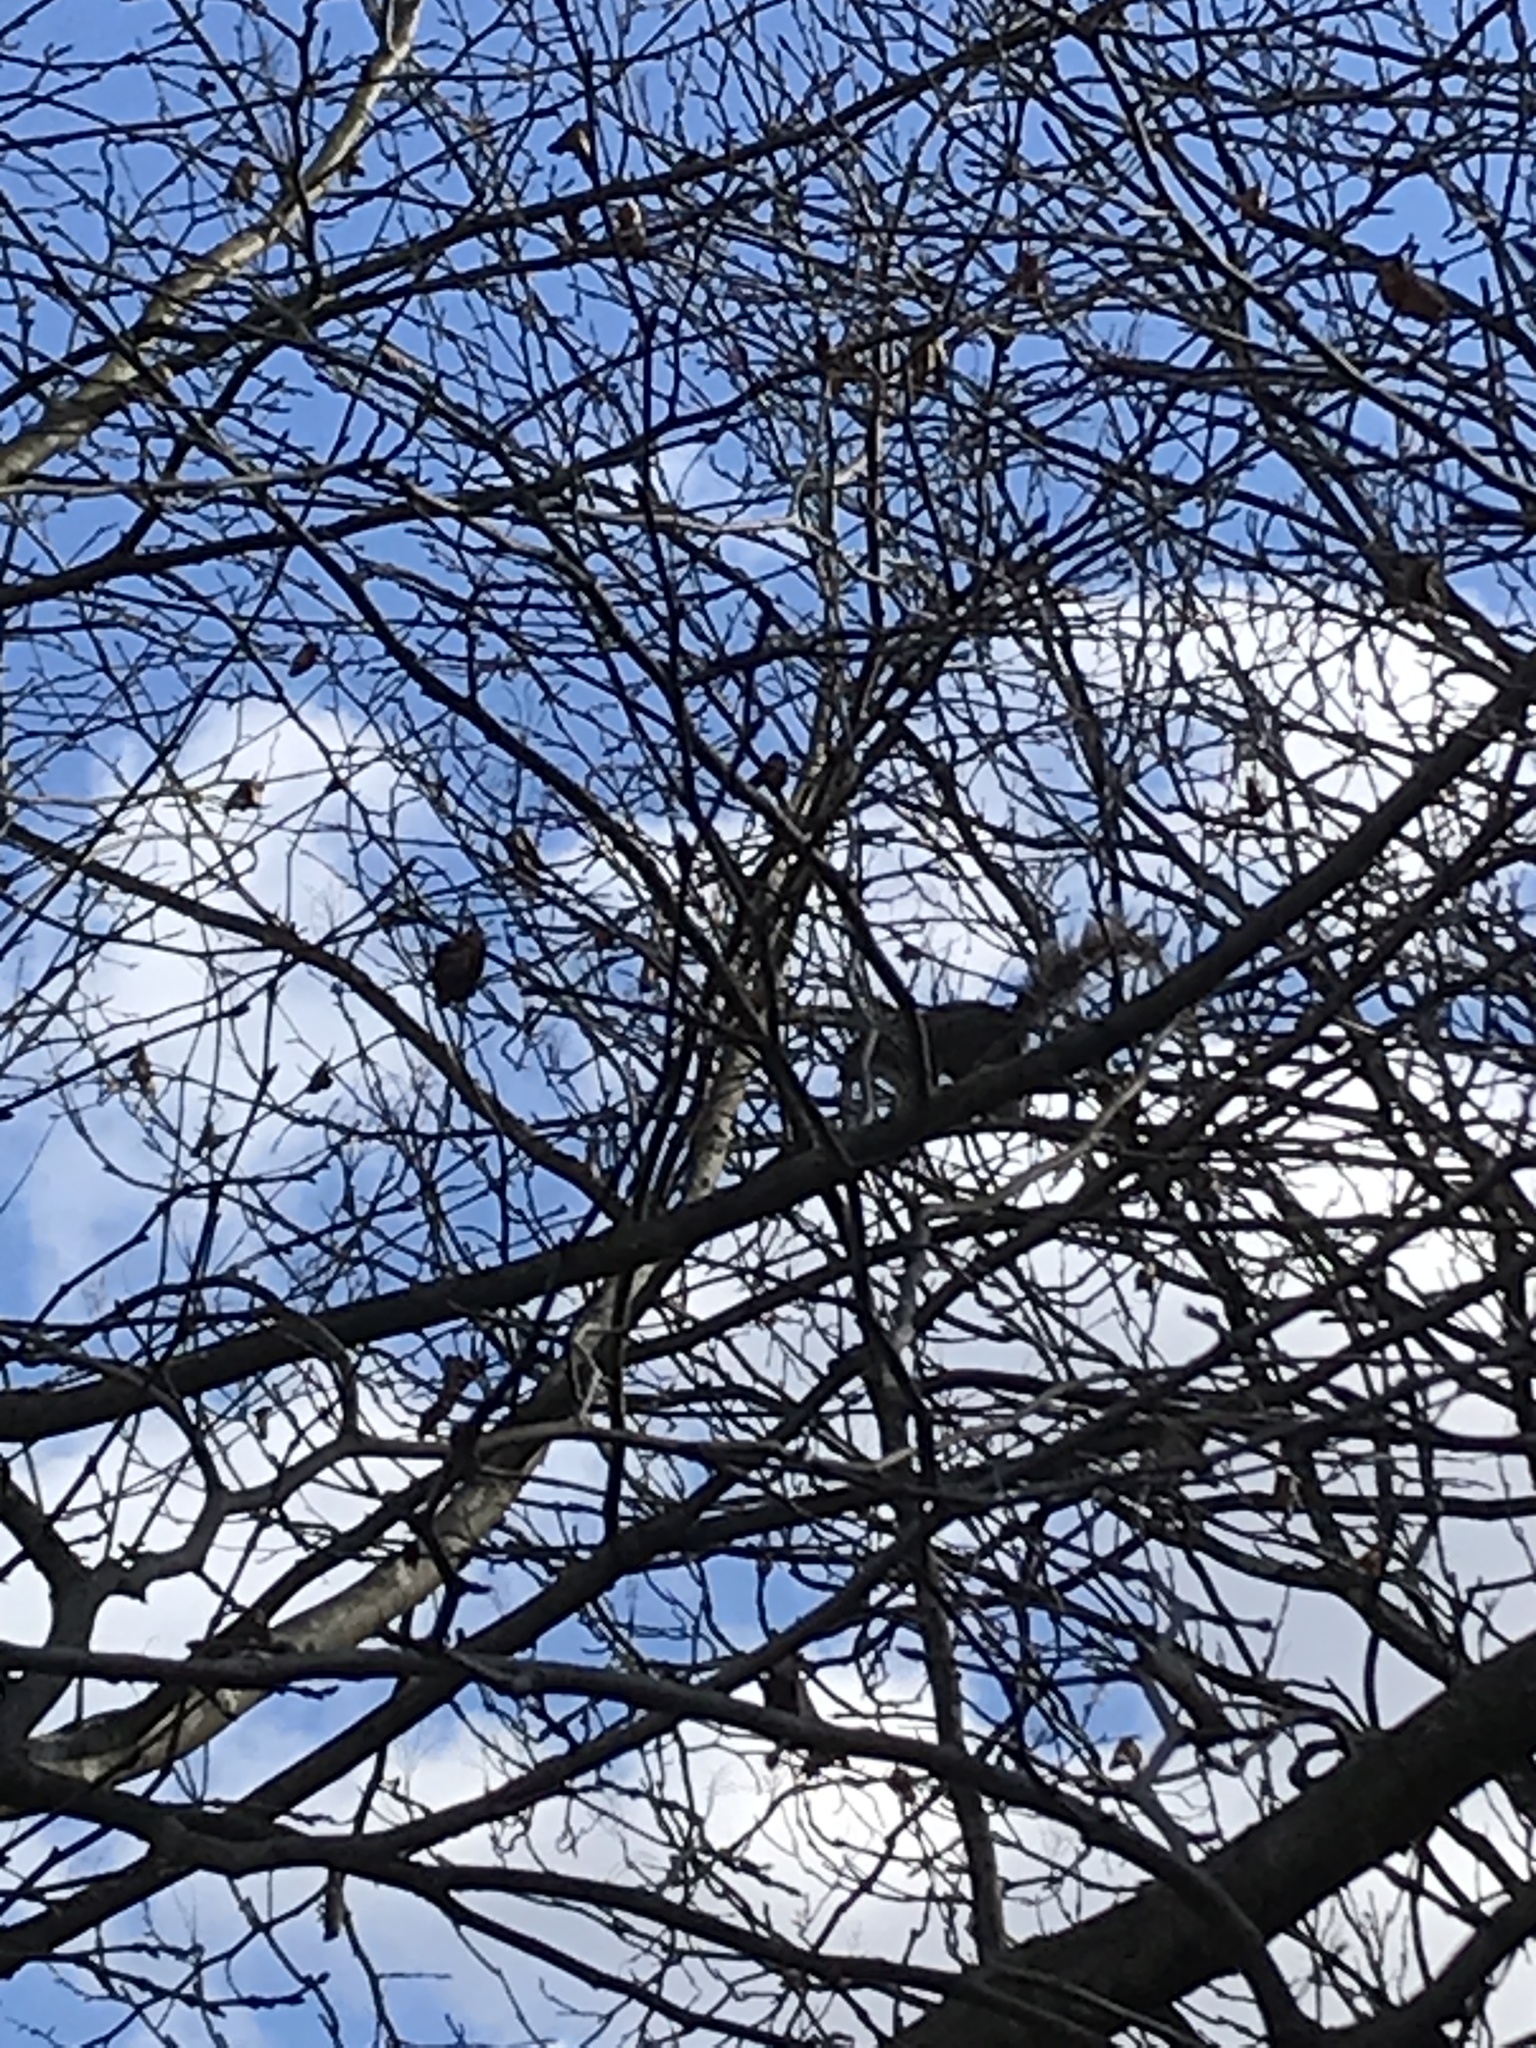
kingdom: Animalia
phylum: Chordata
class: Mammalia
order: Rodentia
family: Sciuridae
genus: Sciurus
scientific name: Sciurus carolinensis
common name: Eastern gray squirrel
